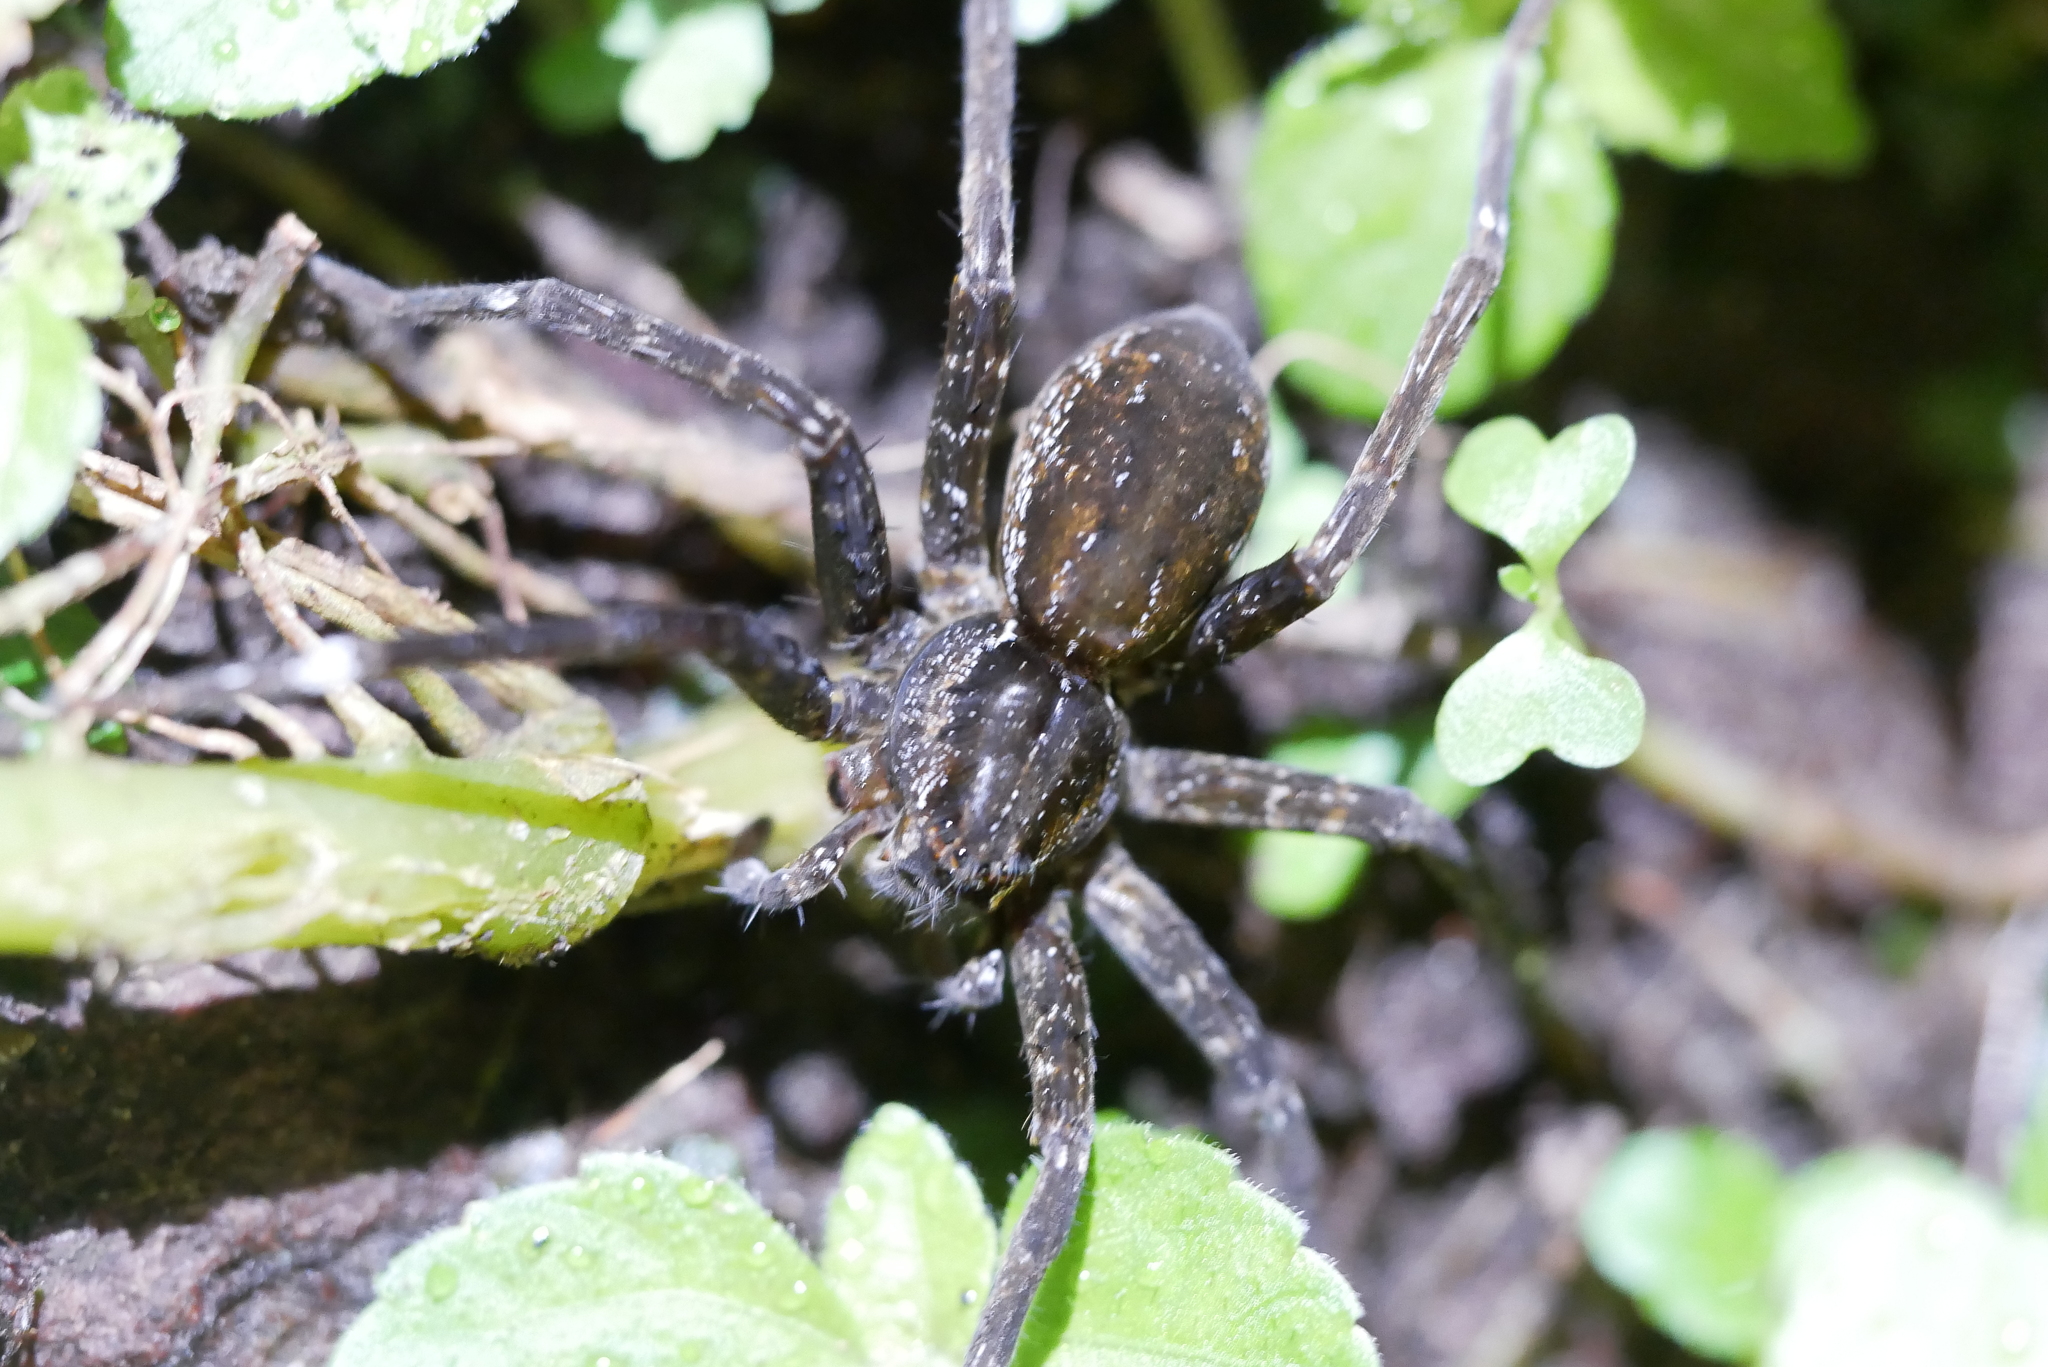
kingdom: Animalia
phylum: Arthropoda
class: Arachnida
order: Araneae
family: Pisauridae
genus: Dolomedes
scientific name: Dolomedes raptor
